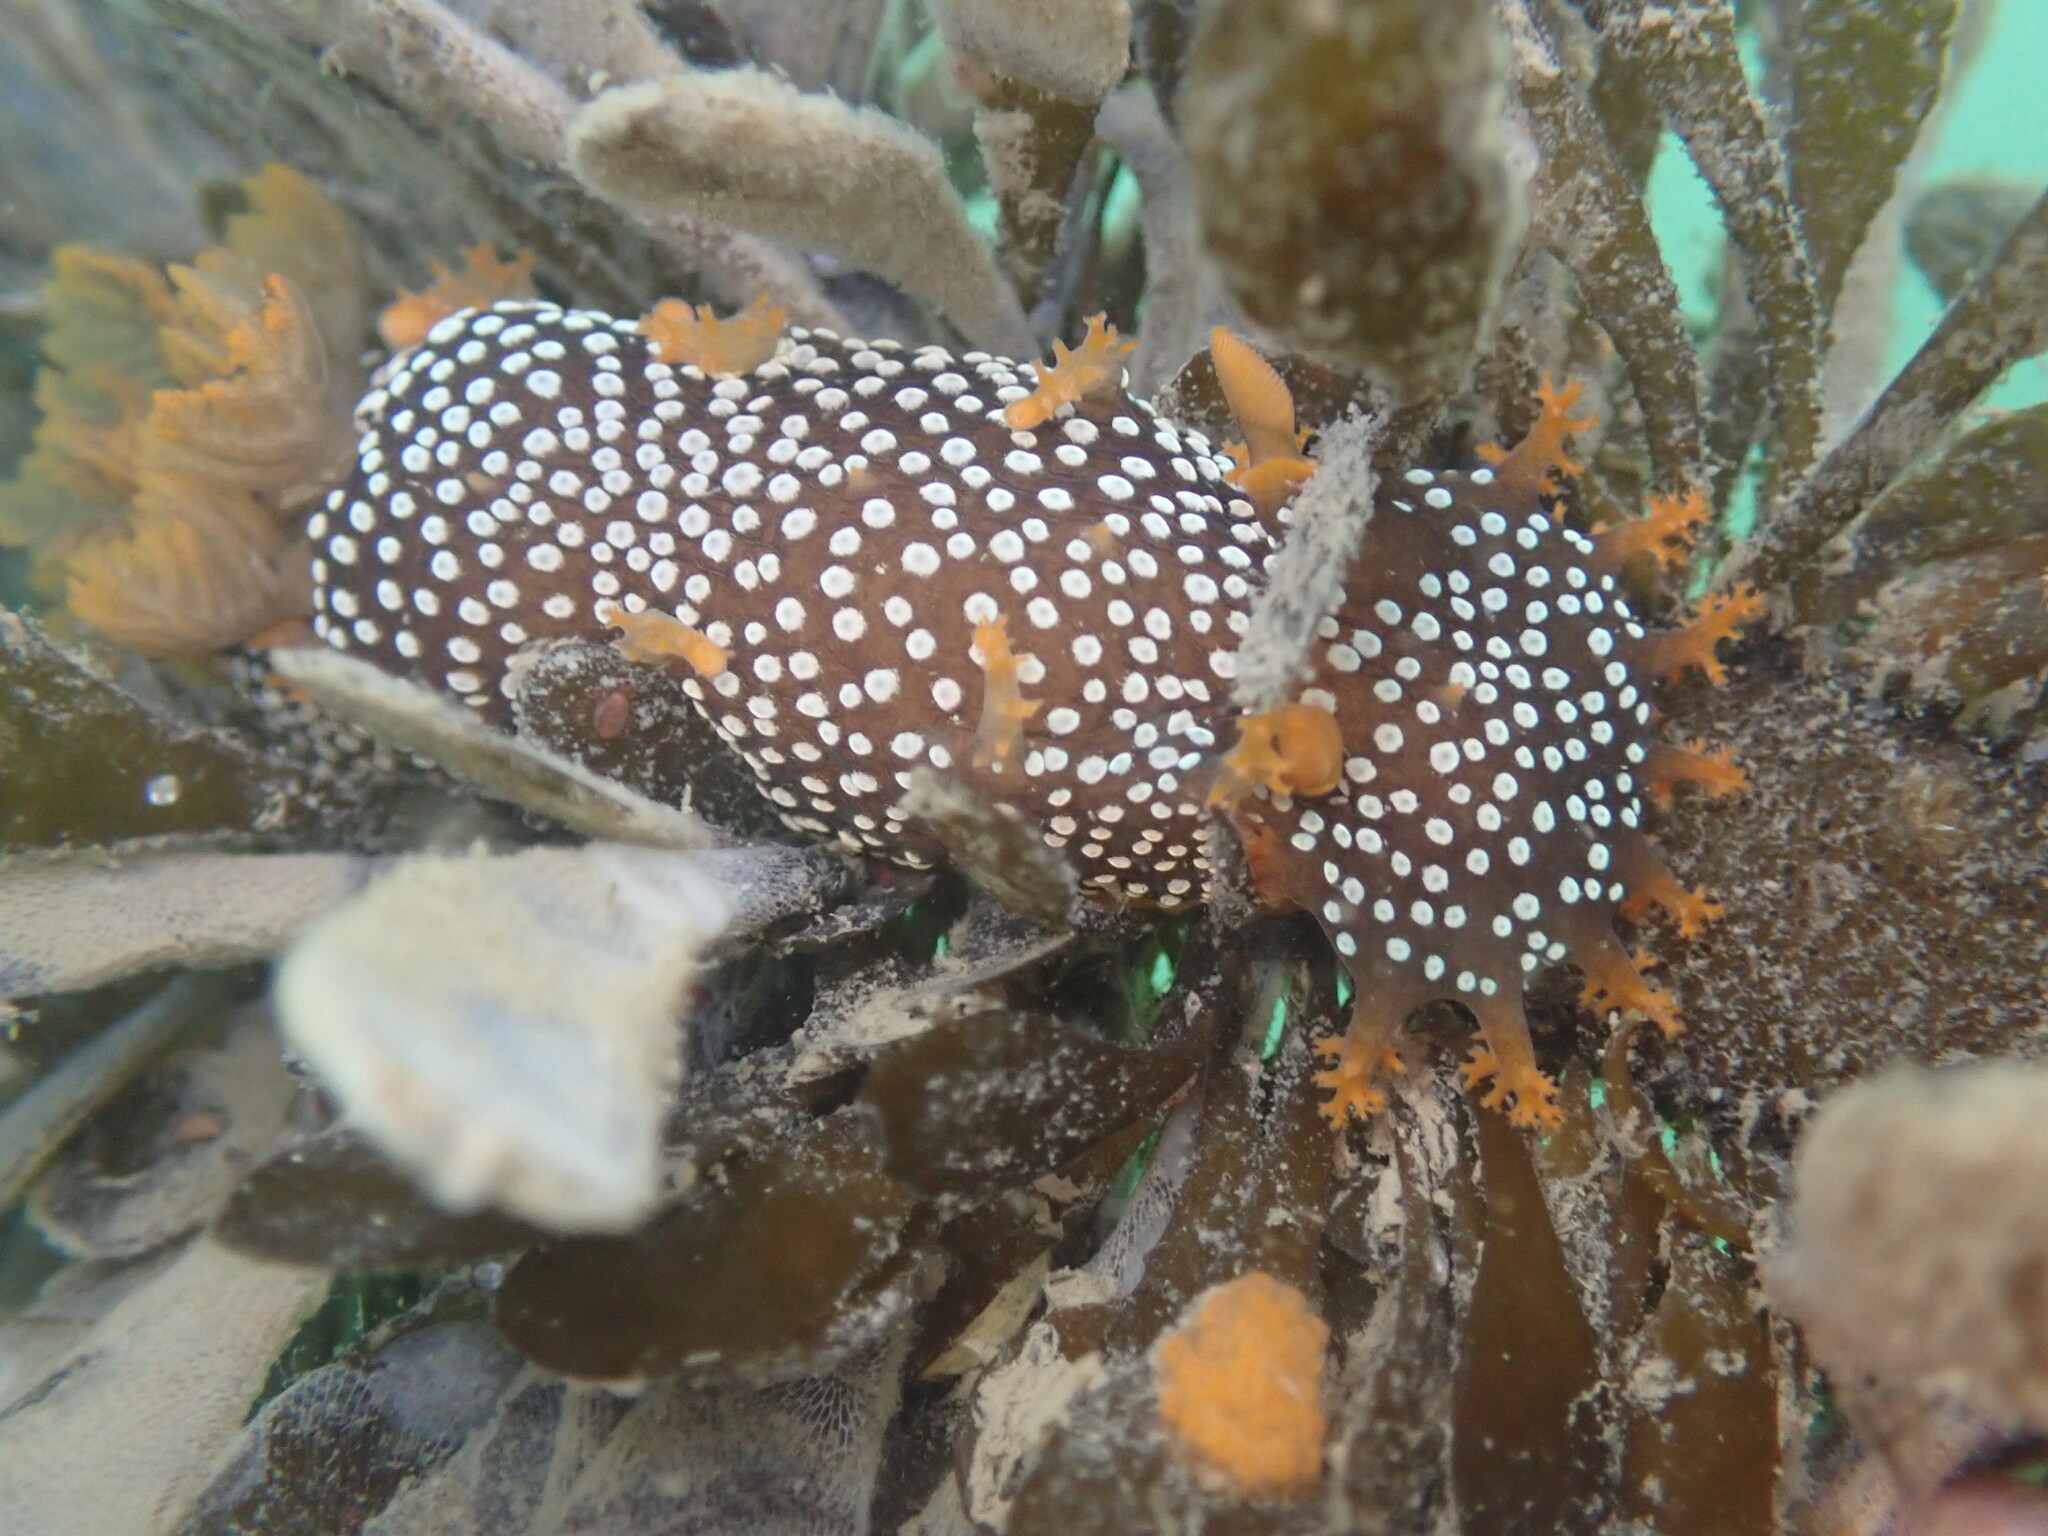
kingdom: Animalia
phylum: Mollusca
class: Gastropoda
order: Nudibranchia
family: Polyceridae
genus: Triopha
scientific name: Triopha maculata
